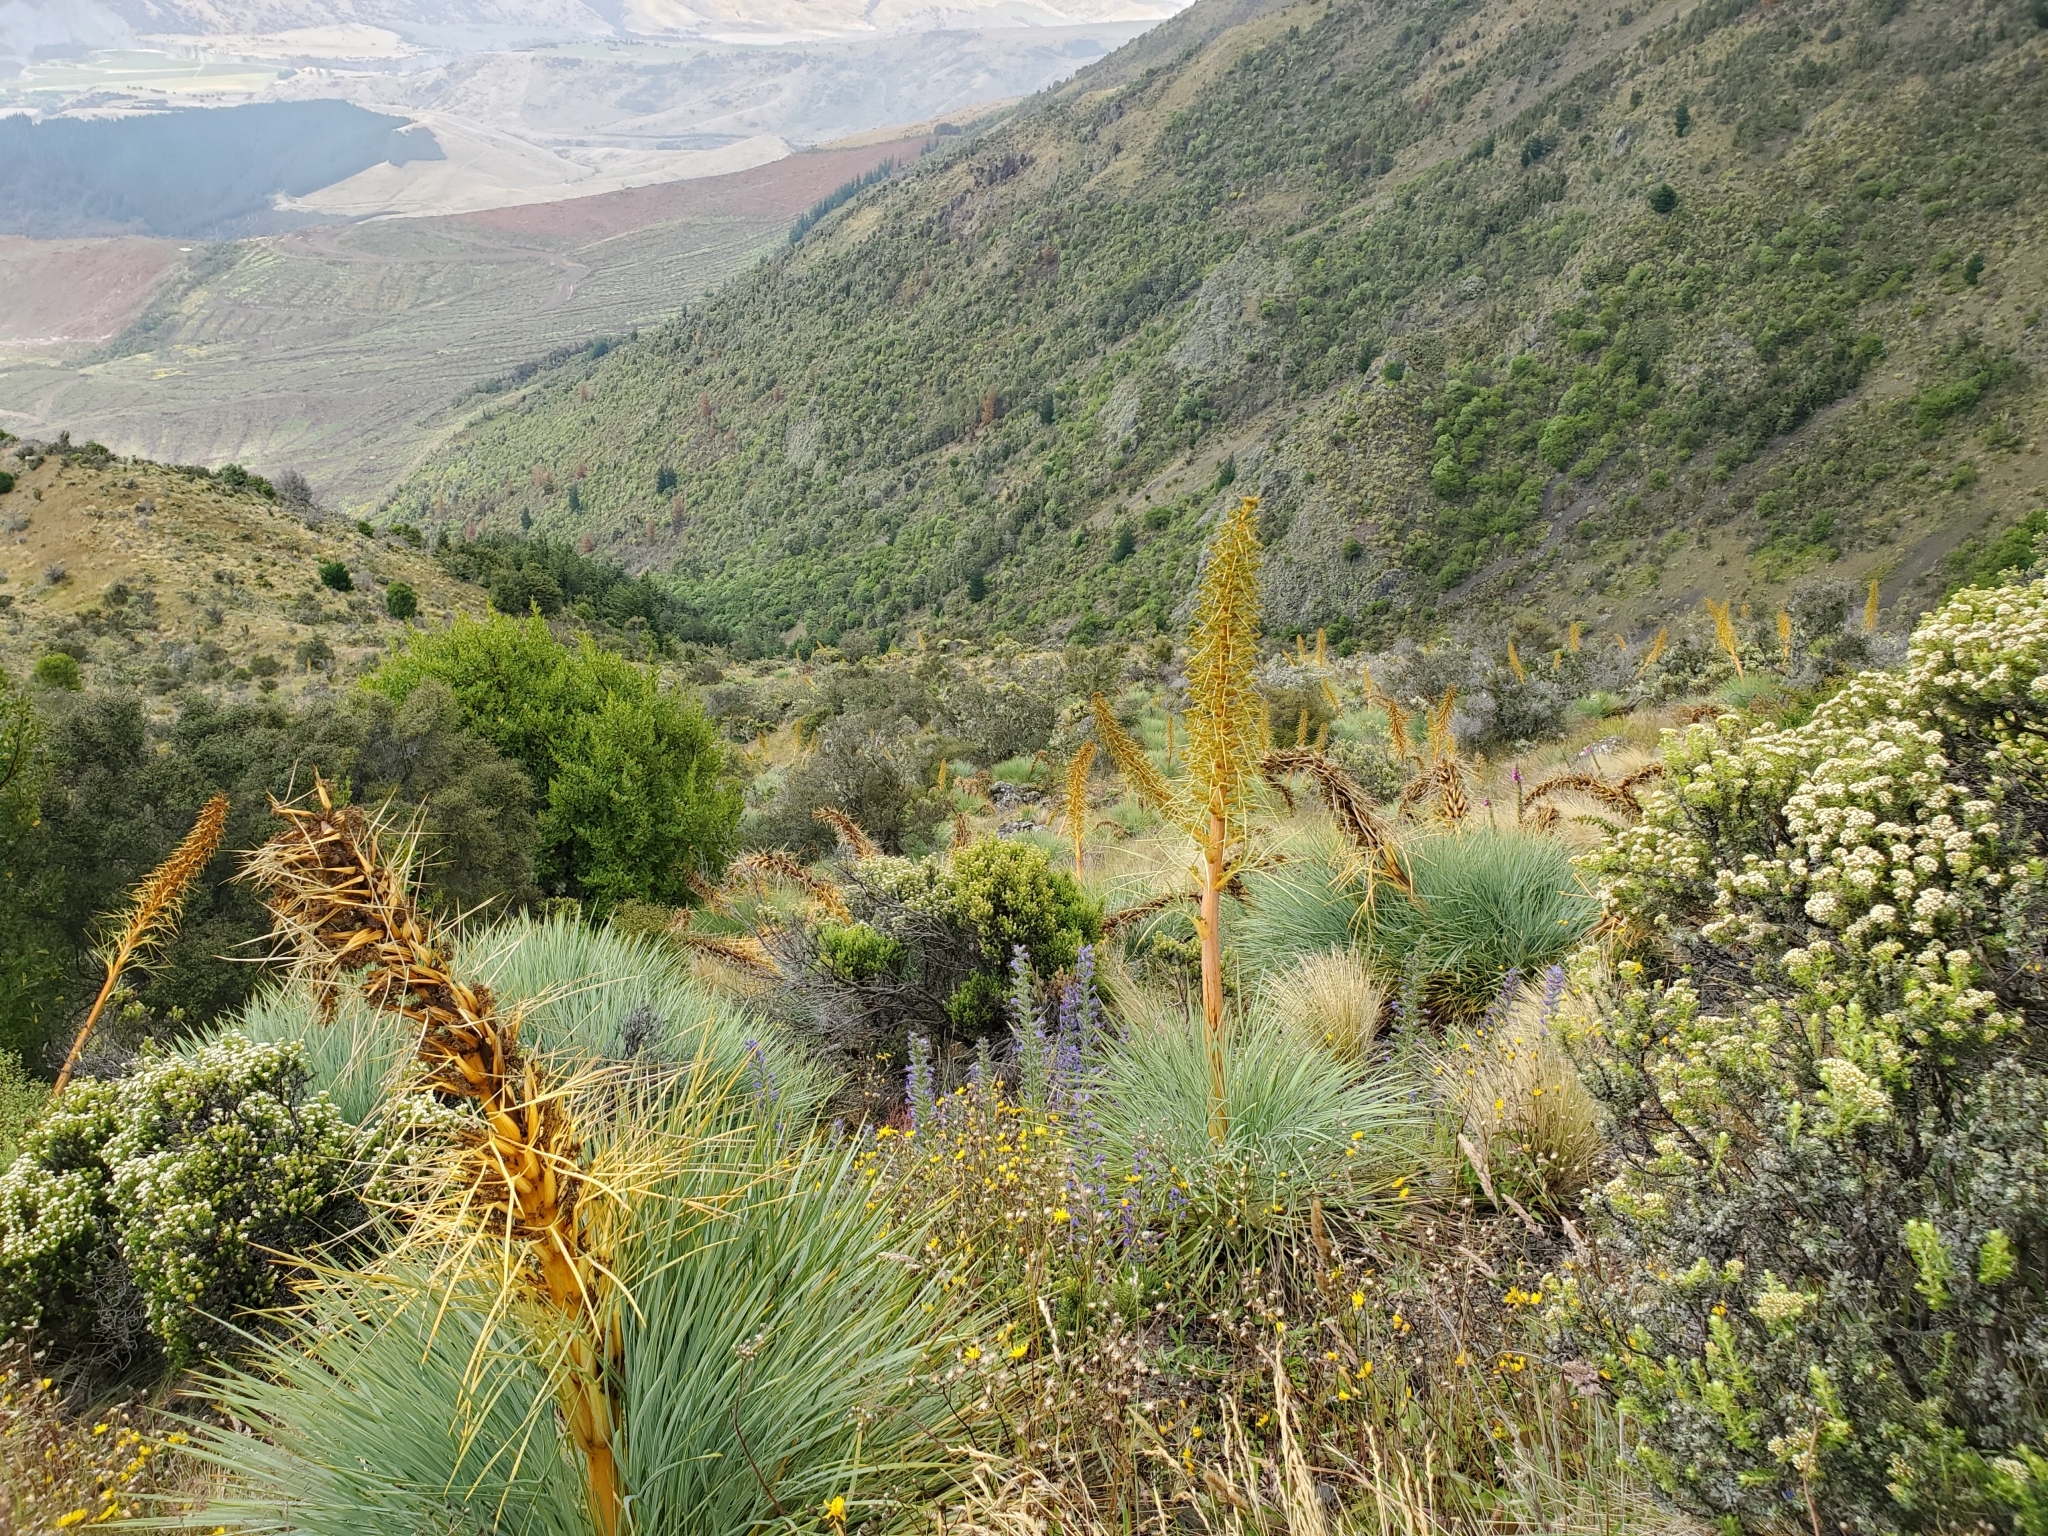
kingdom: Plantae
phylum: Tracheophyta
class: Magnoliopsida
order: Apiales
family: Apiaceae
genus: Aciphylla
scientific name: Aciphylla glaucescens
